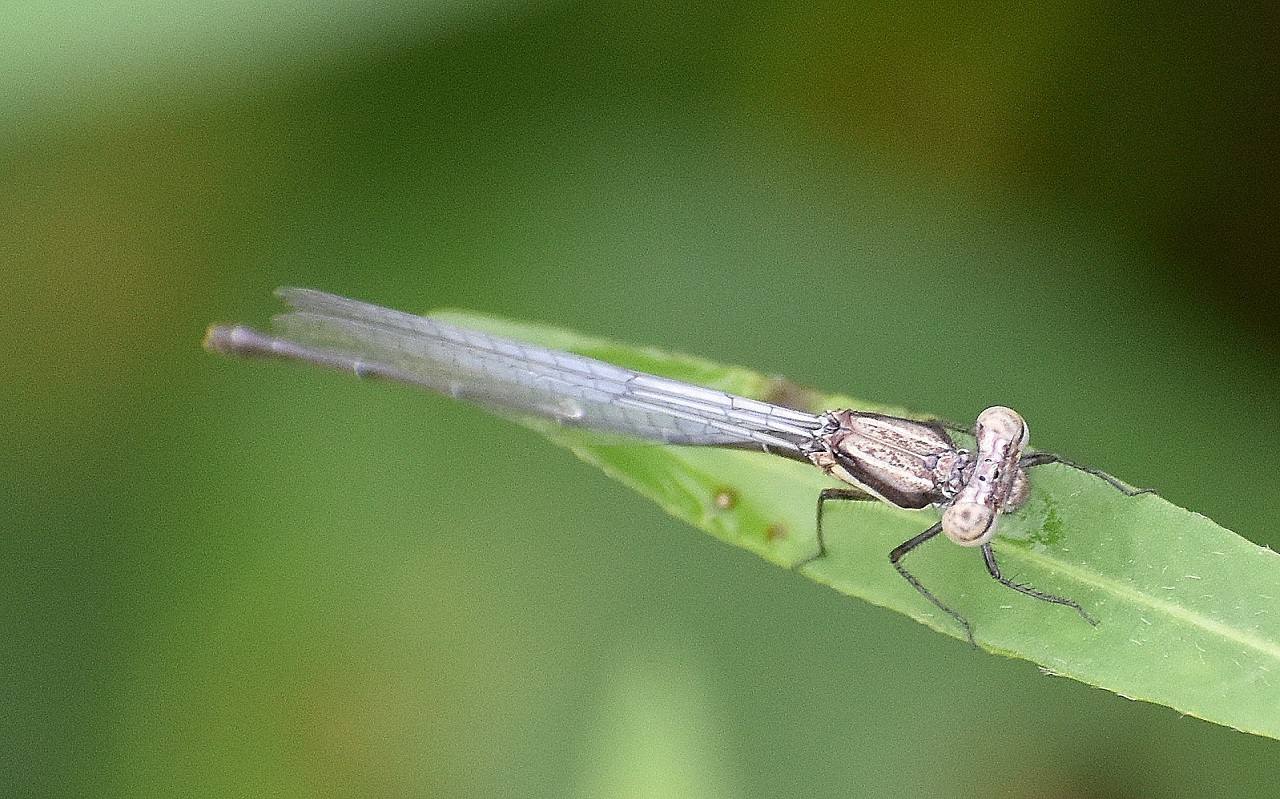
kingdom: Animalia
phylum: Arthropoda
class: Insecta
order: Odonata
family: Platycnemididae
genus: Onychargia
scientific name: Onychargia atrocyana
